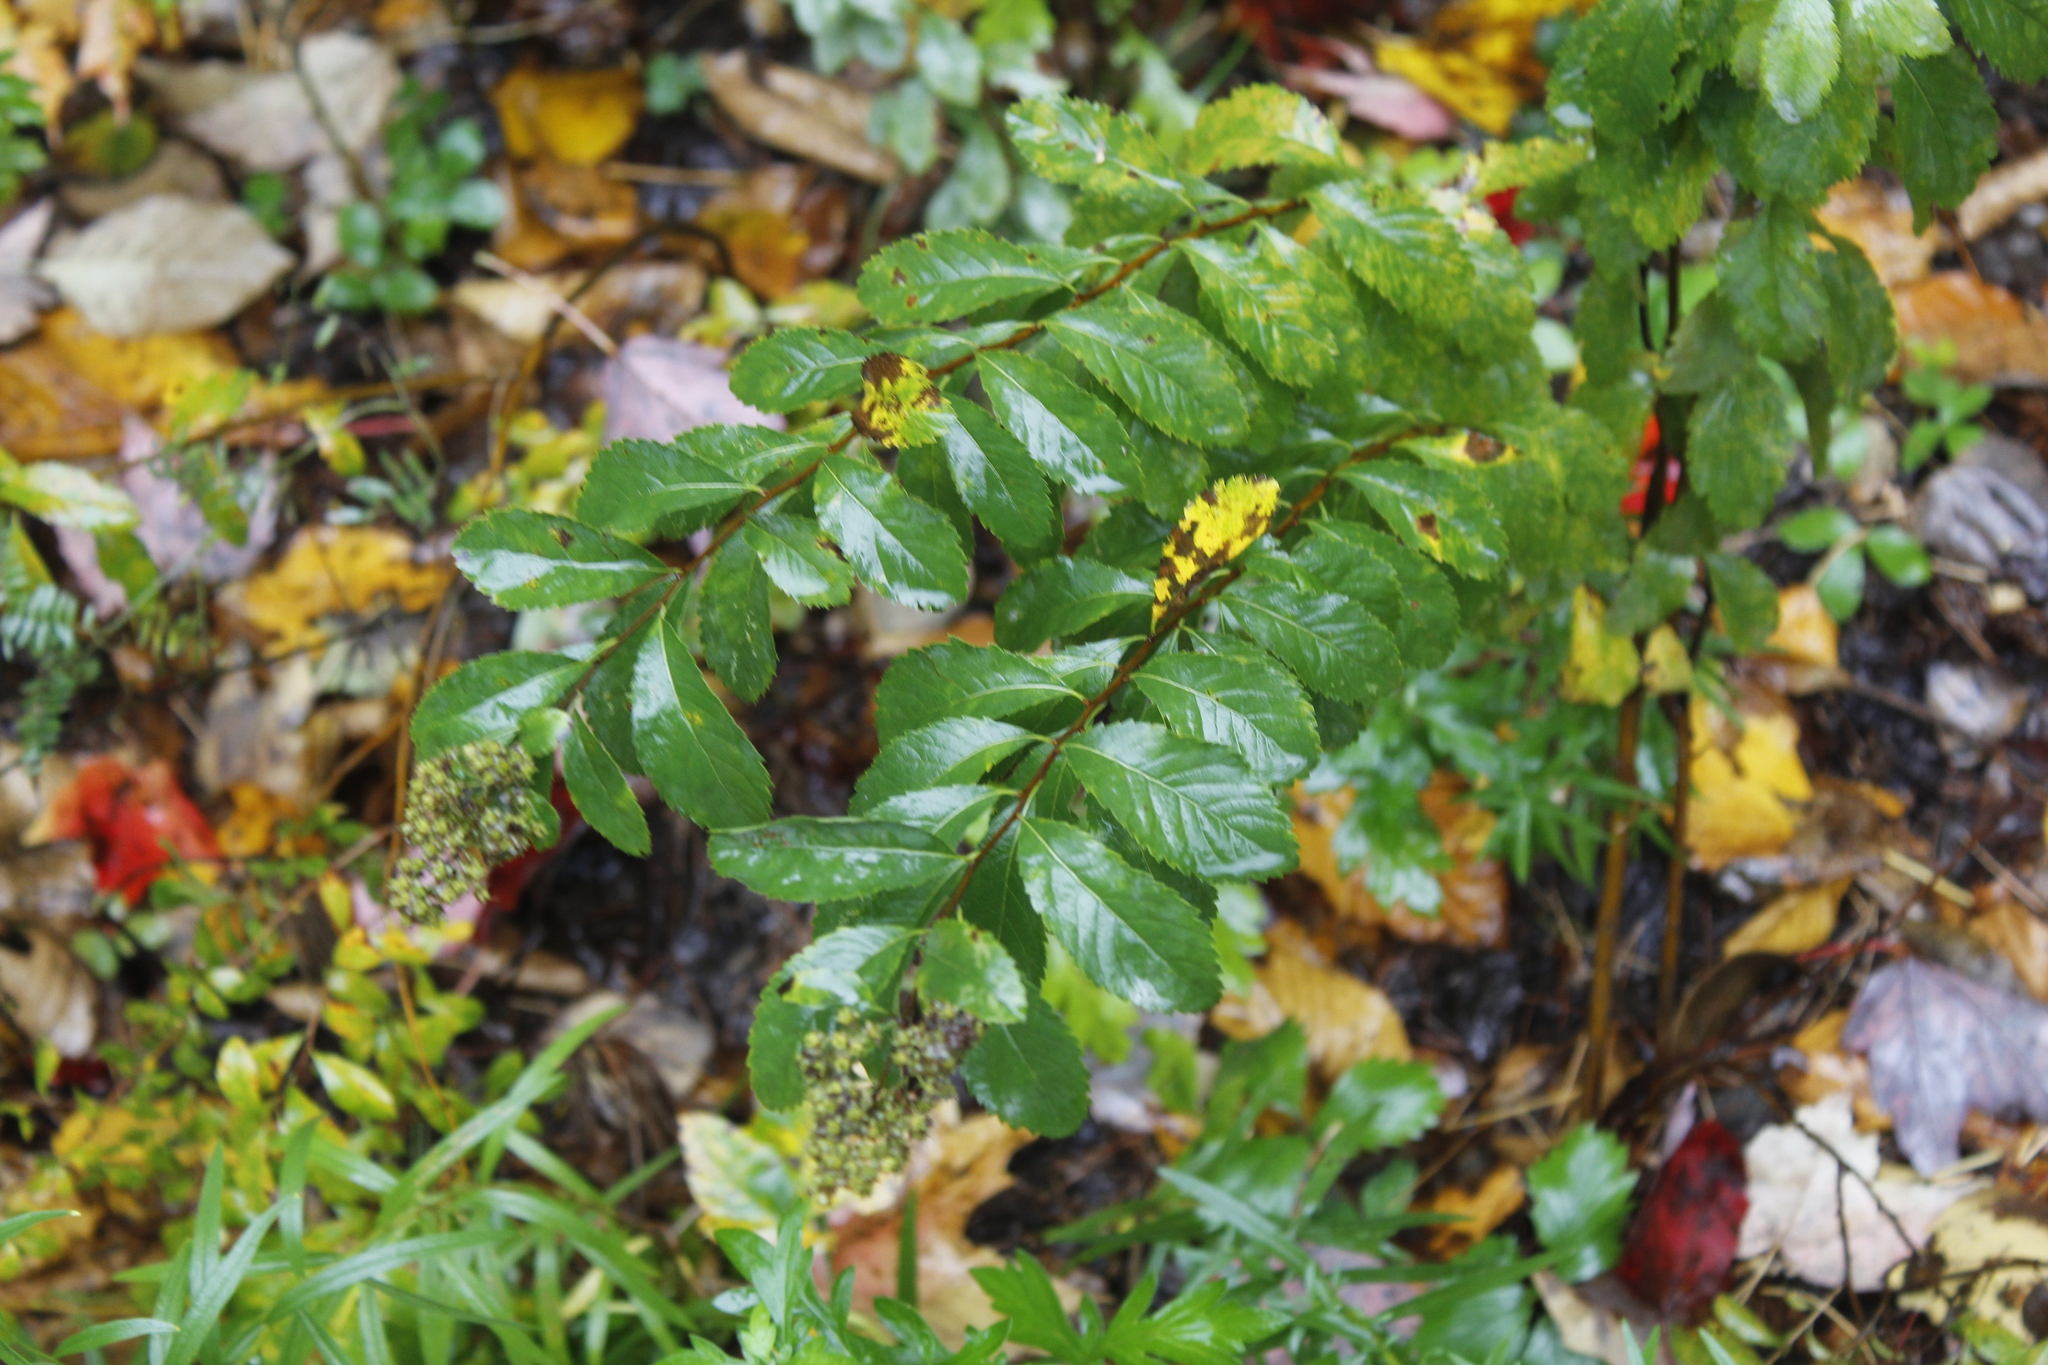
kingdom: Plantae
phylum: Tracheophyta
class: Magnoliopsida
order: Rosales
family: Rosaceae
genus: Spiraea
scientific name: Spiraea alba
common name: Pale bridewort
